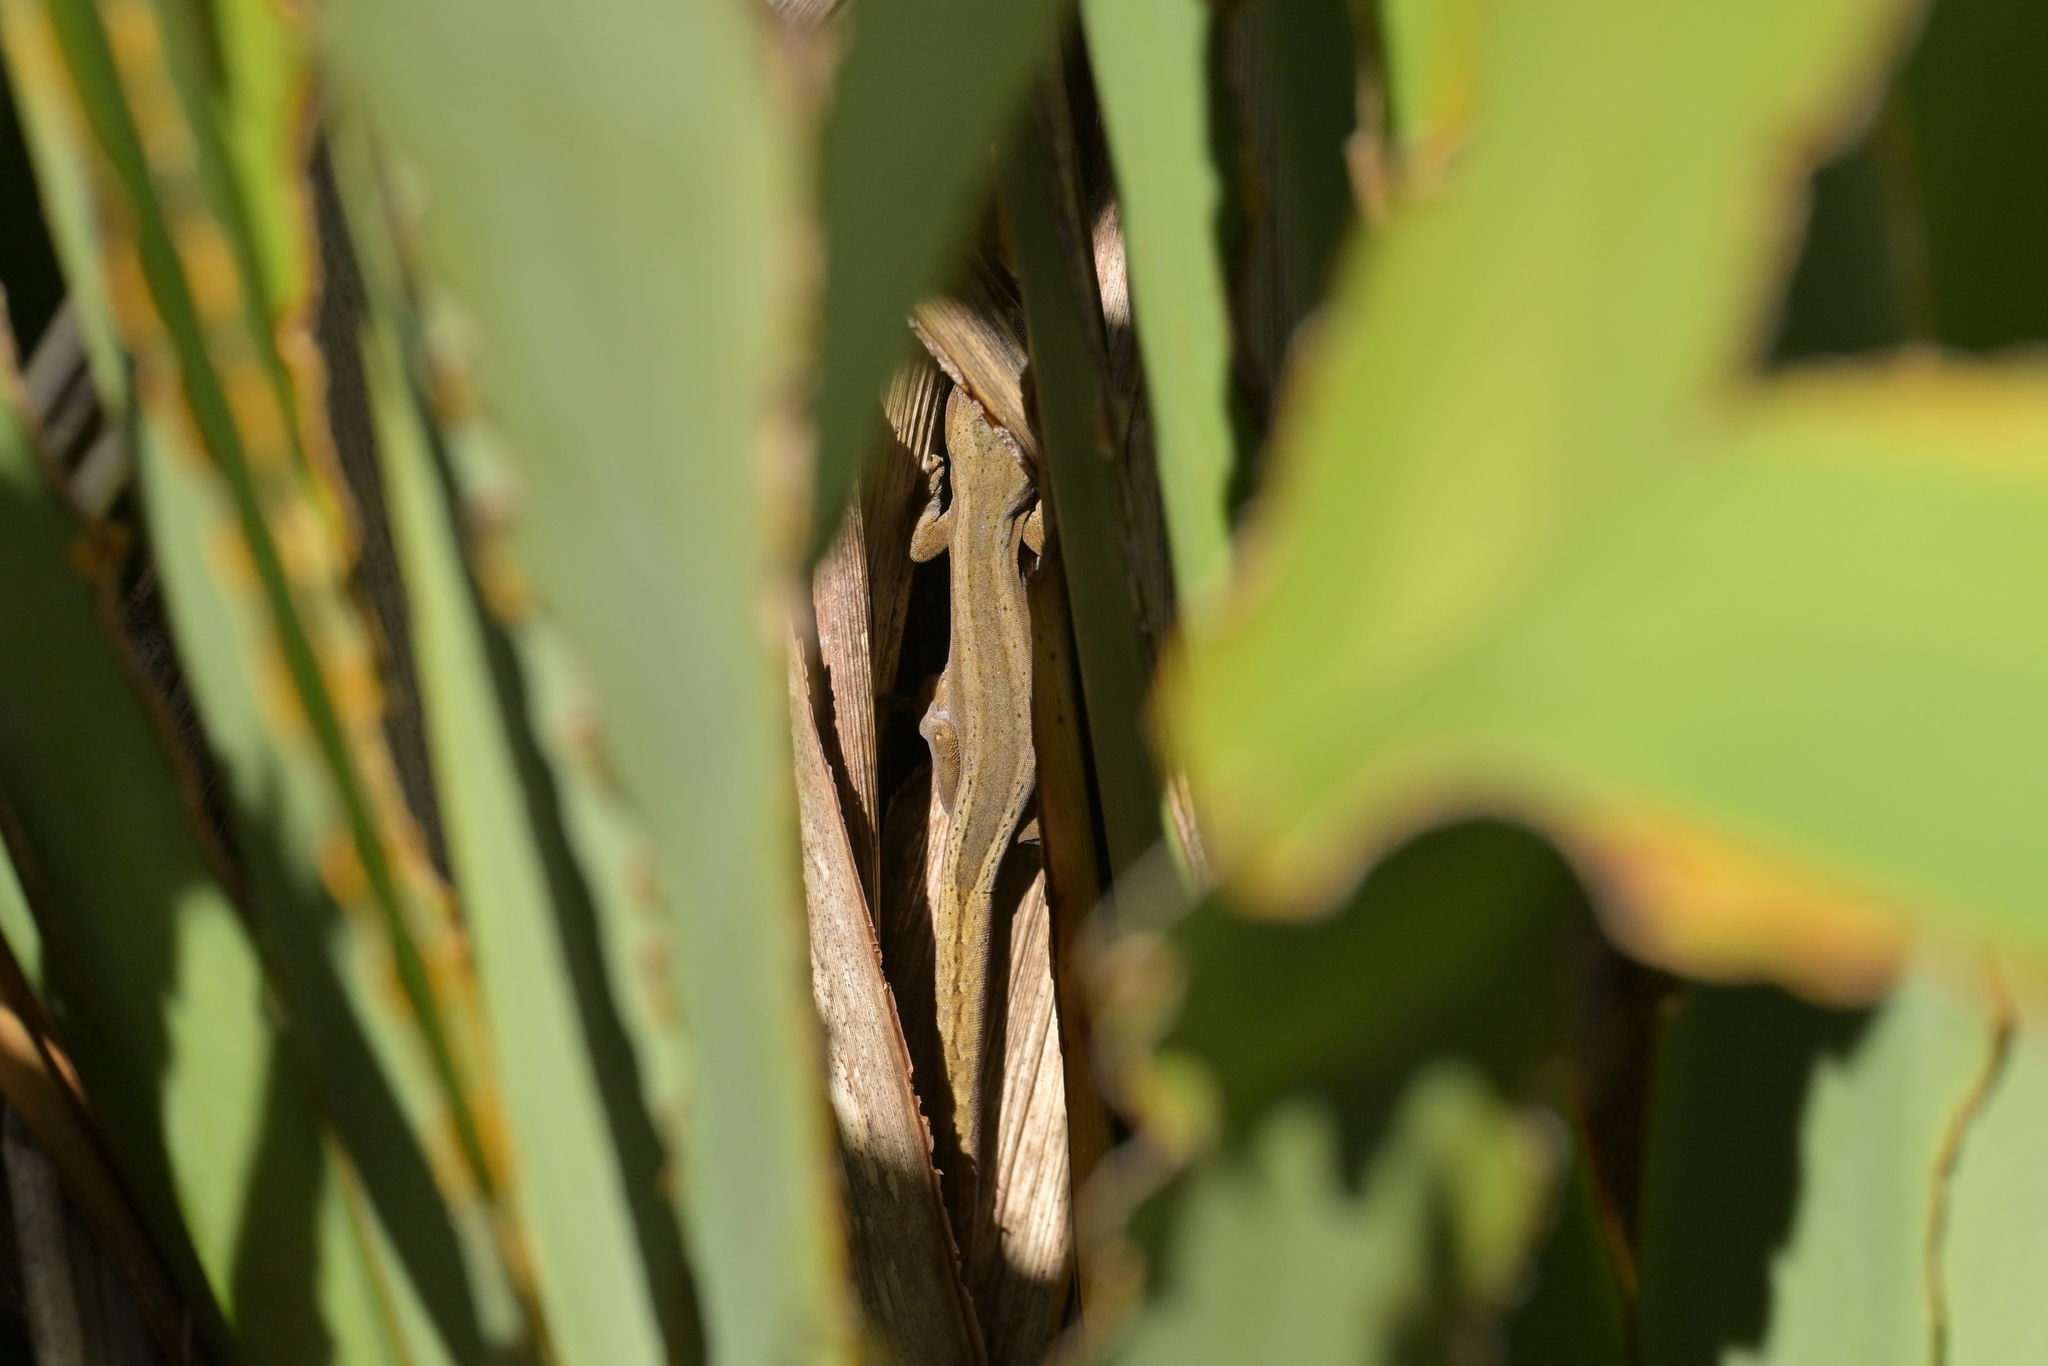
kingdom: Animalia
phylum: Chordata
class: Squamata
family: Diplodactylidae
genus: Woodworthia
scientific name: Woodworthia chrysosiretica
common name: Gold-striped gecko
